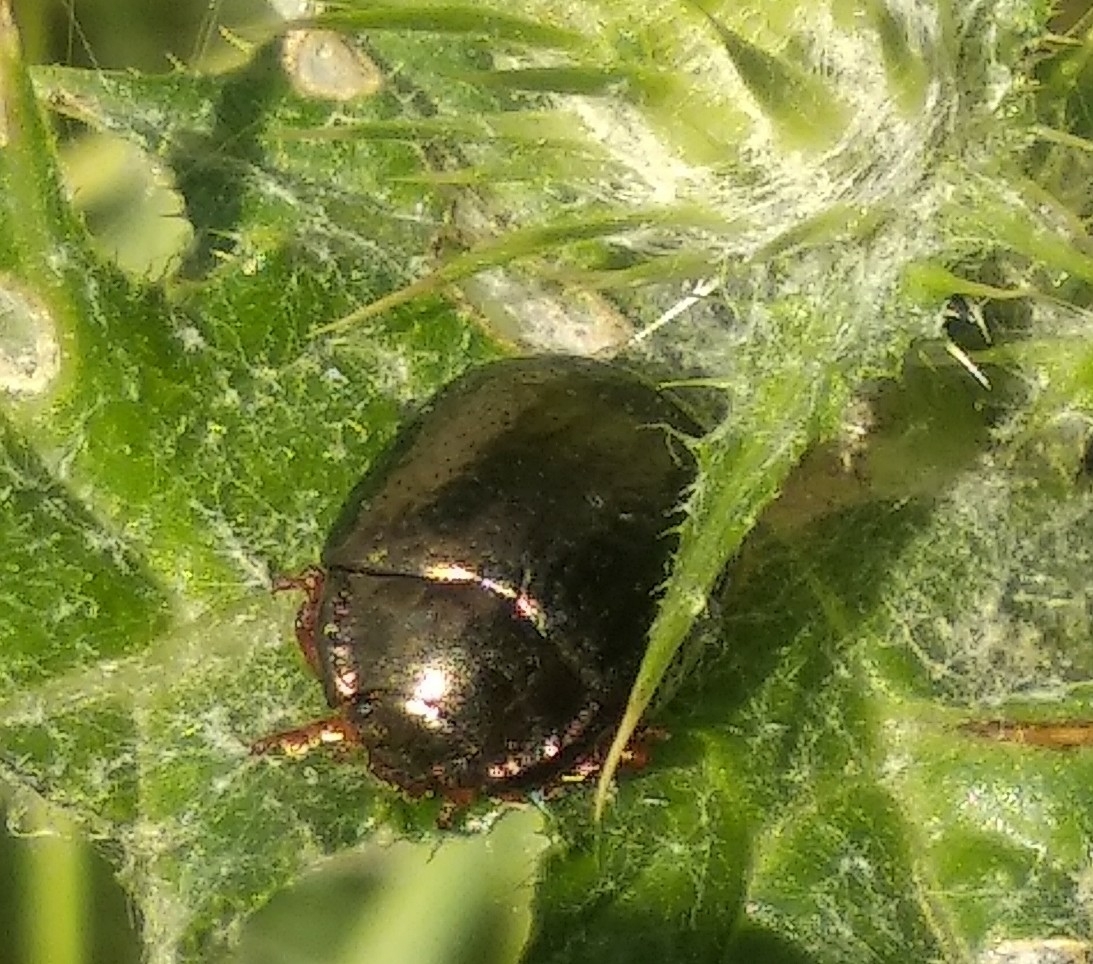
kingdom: Animalia
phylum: Arthropoda
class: Insecta
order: Coleoptera
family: Chrysomelidae
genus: Chrysolina
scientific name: Chrysolina bankii
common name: Leaf beetle
